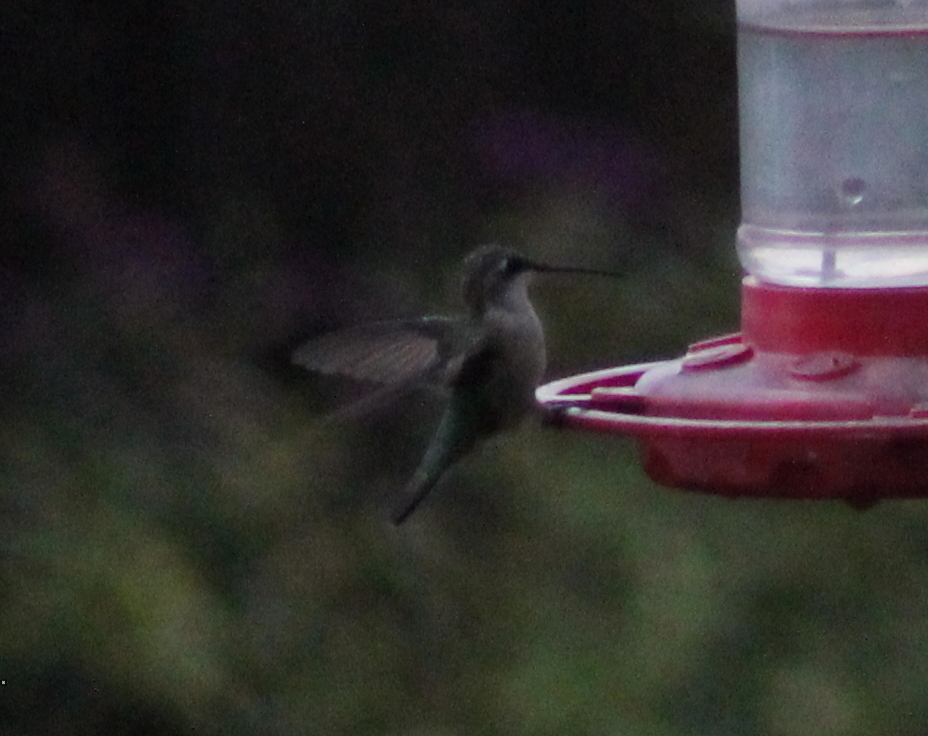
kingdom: Animalia
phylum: Chordata
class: Aves
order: Apodiformes
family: Trochilidae
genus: Archilochus
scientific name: Archilochus colubris
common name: Ruby-throated hummingbird
